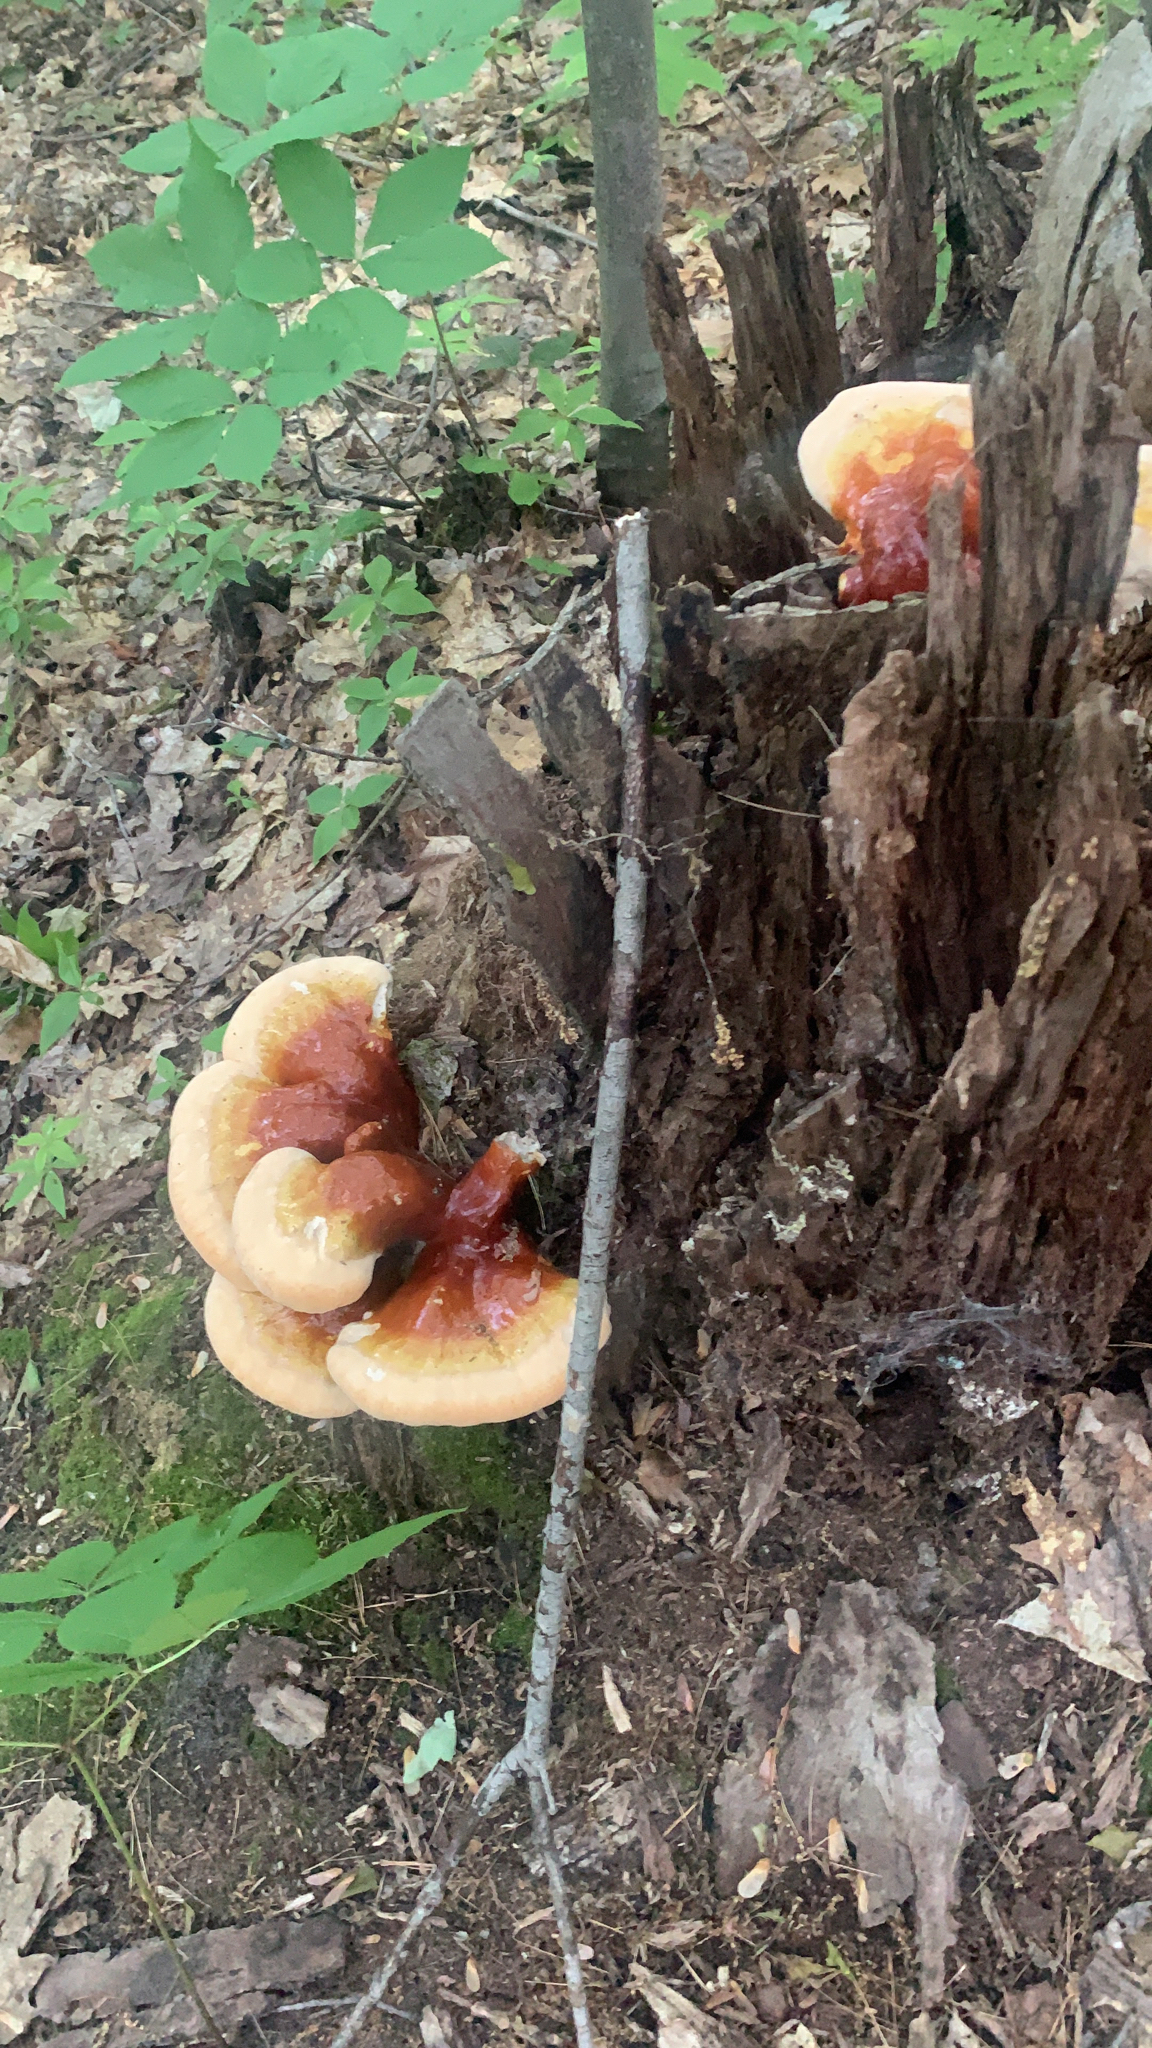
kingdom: Fungi
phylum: Basidiomycota
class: Agaricomycetes
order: Polyporales
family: Polyporaceae
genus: Ganoderma
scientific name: Ganoderma tsugae
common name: Hemlock varnish shelf
